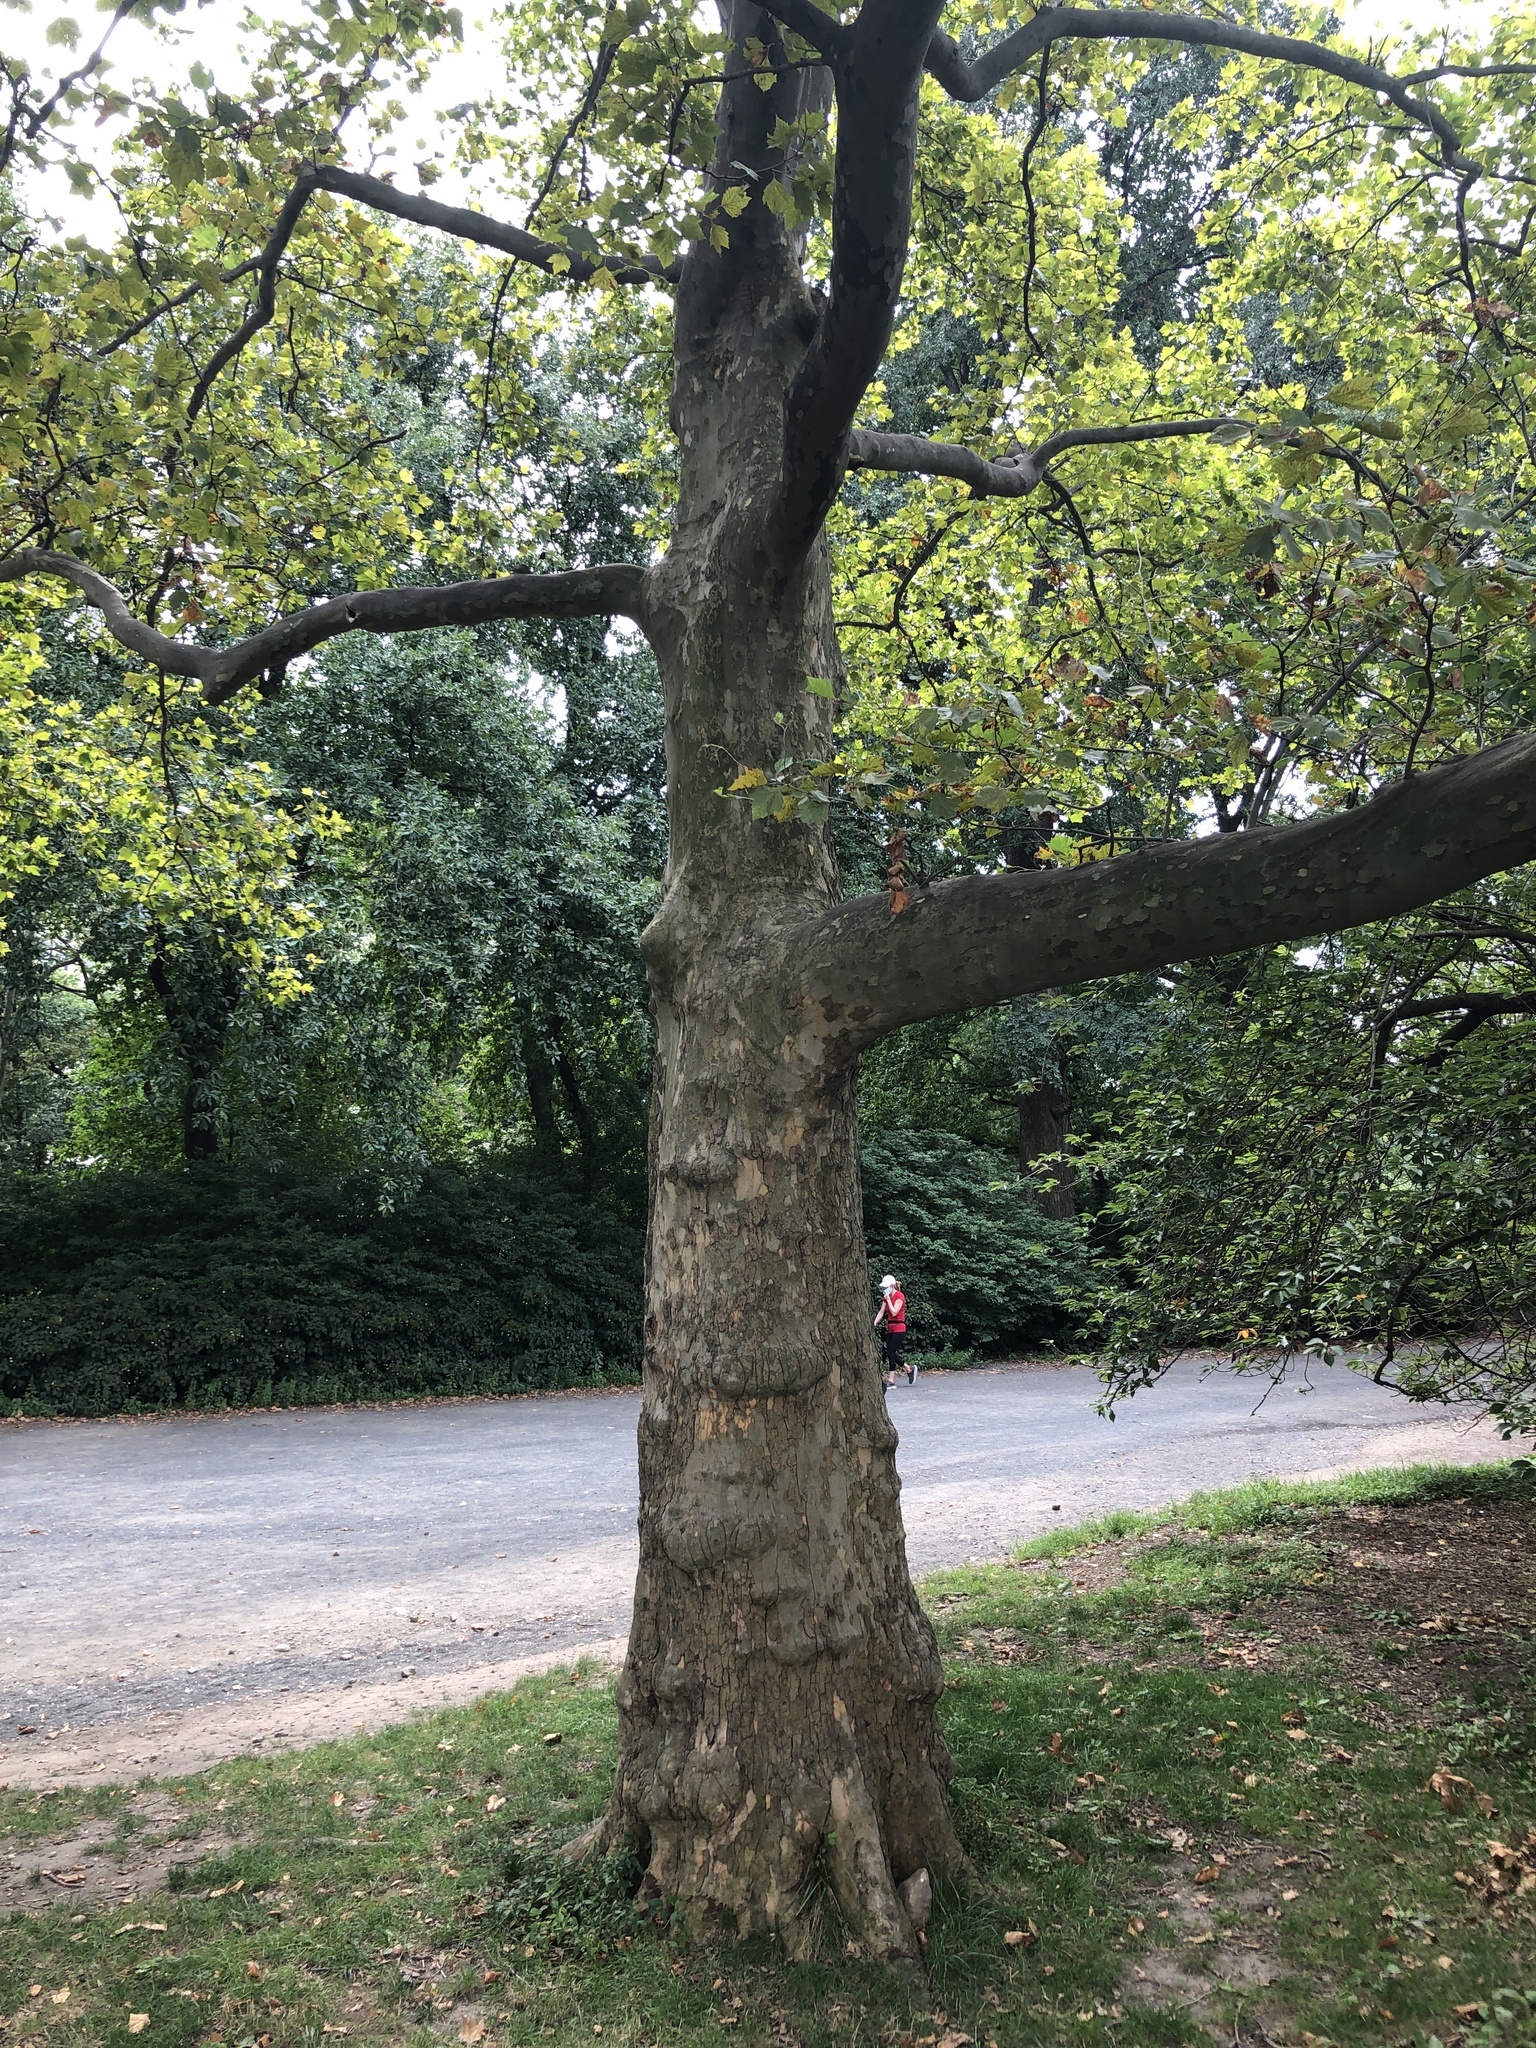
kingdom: Plantae
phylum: Tracheophyta
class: Magnoliopsida
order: Proteales
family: Platanaceae
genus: Platanus
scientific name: Platanus hispanica
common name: London plane
